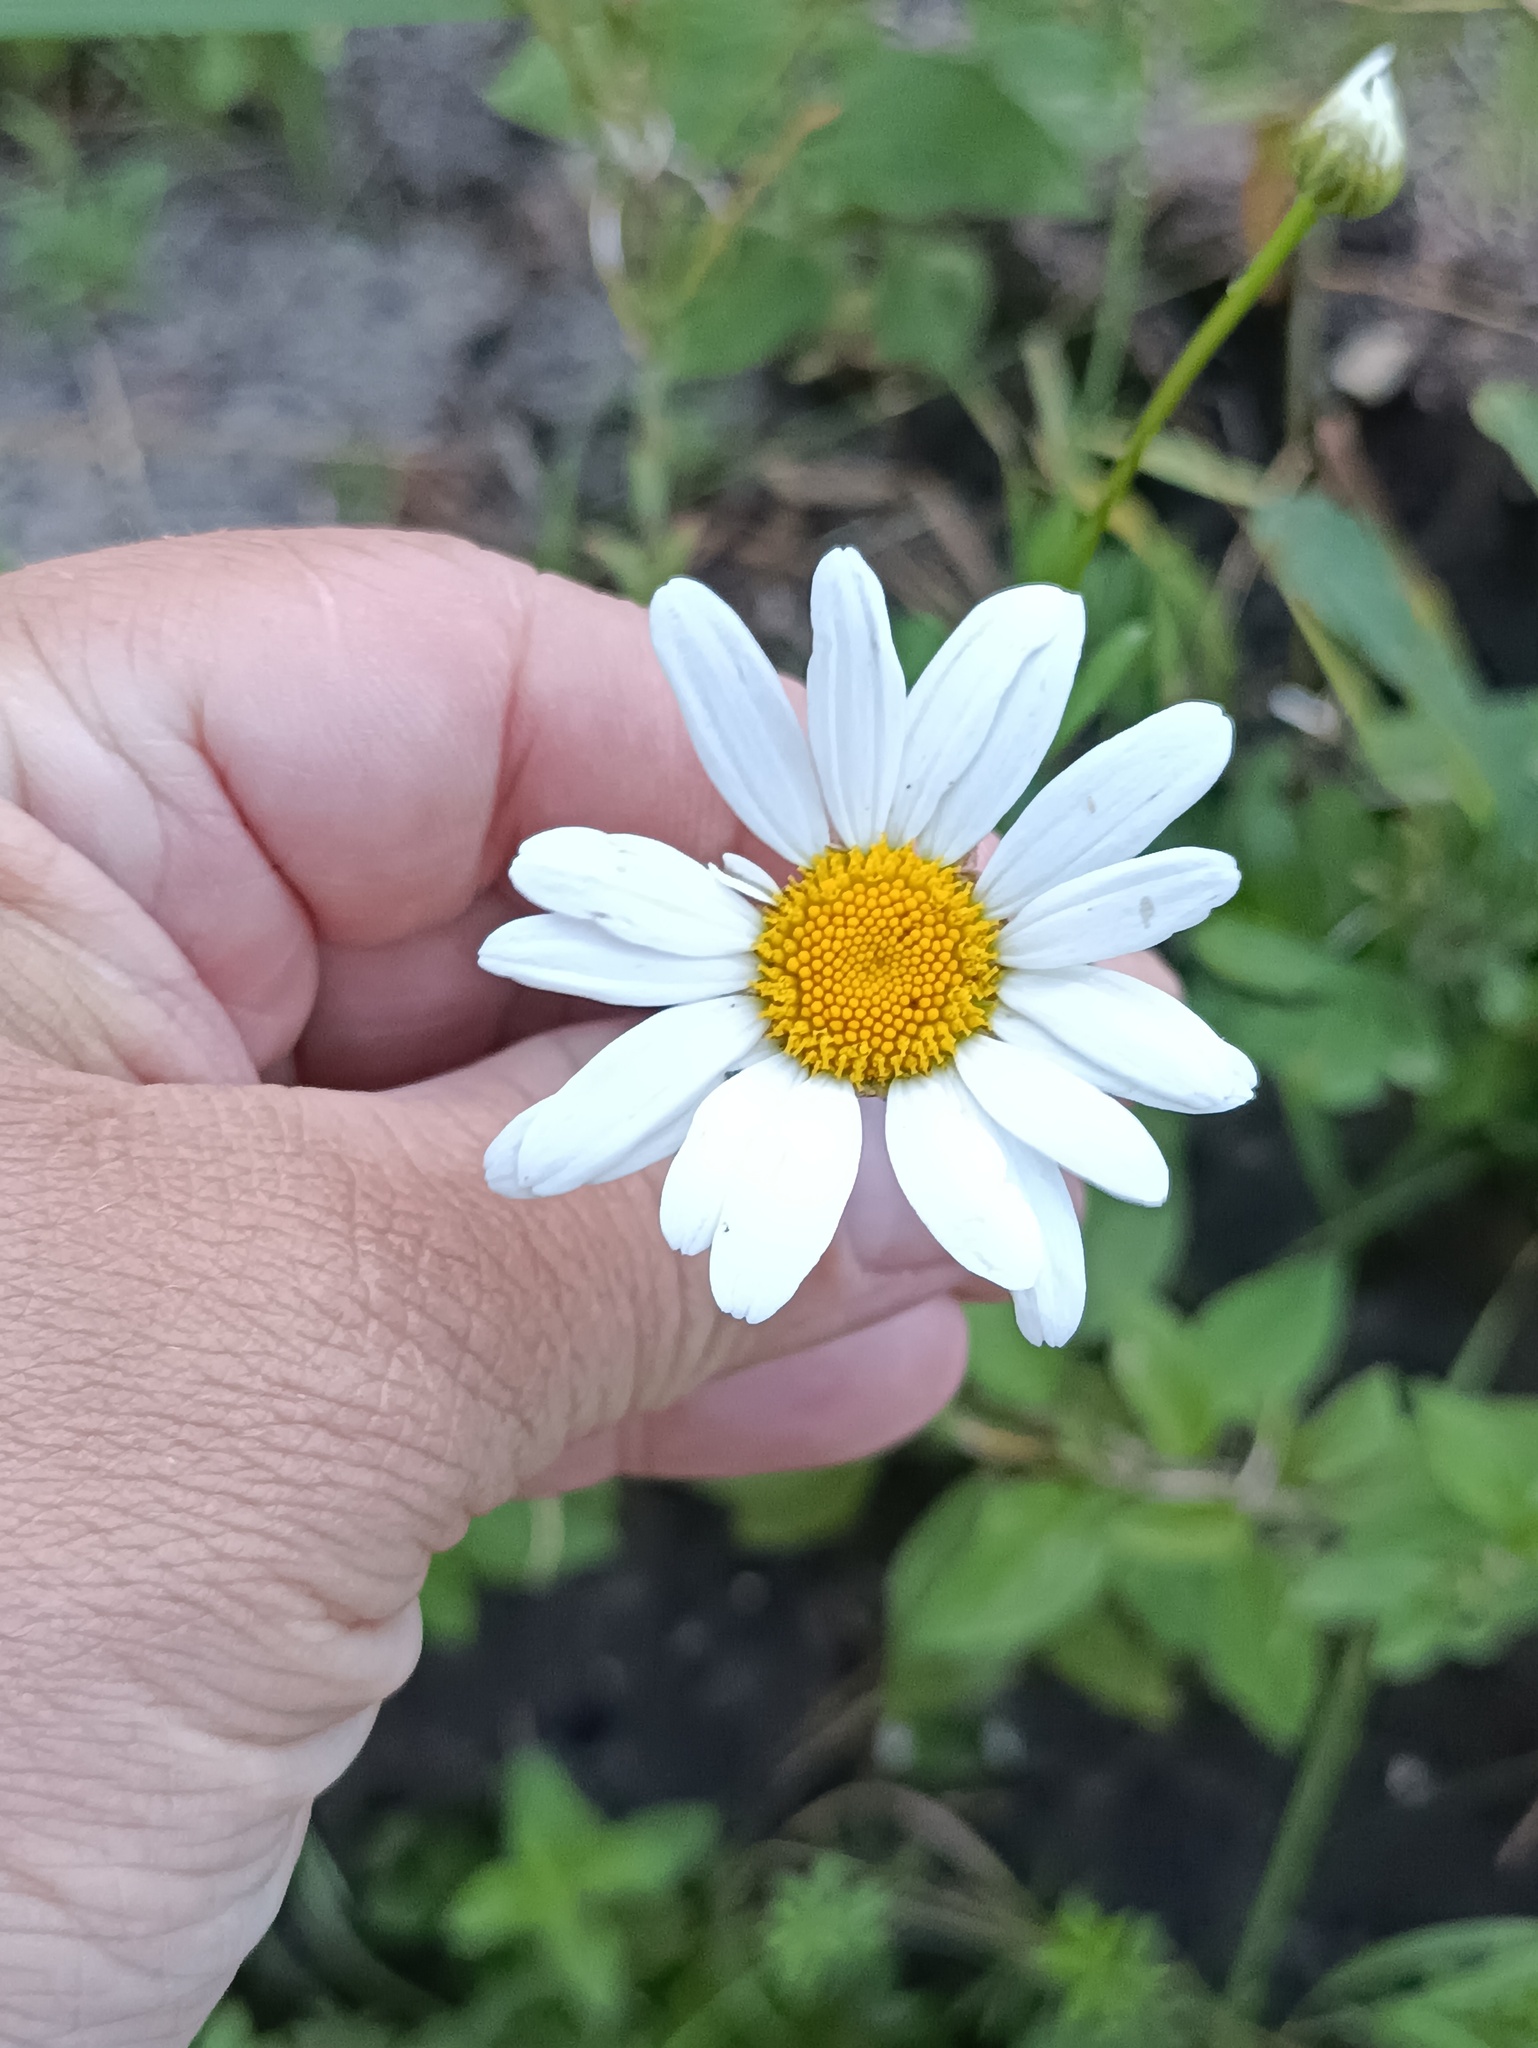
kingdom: Plantae
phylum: Tracheophyta
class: Magnoliopsida
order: Asterales
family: Asteraceae
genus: Leucanthemum
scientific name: Leucanthemum vulgare
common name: Oxeye daisy
